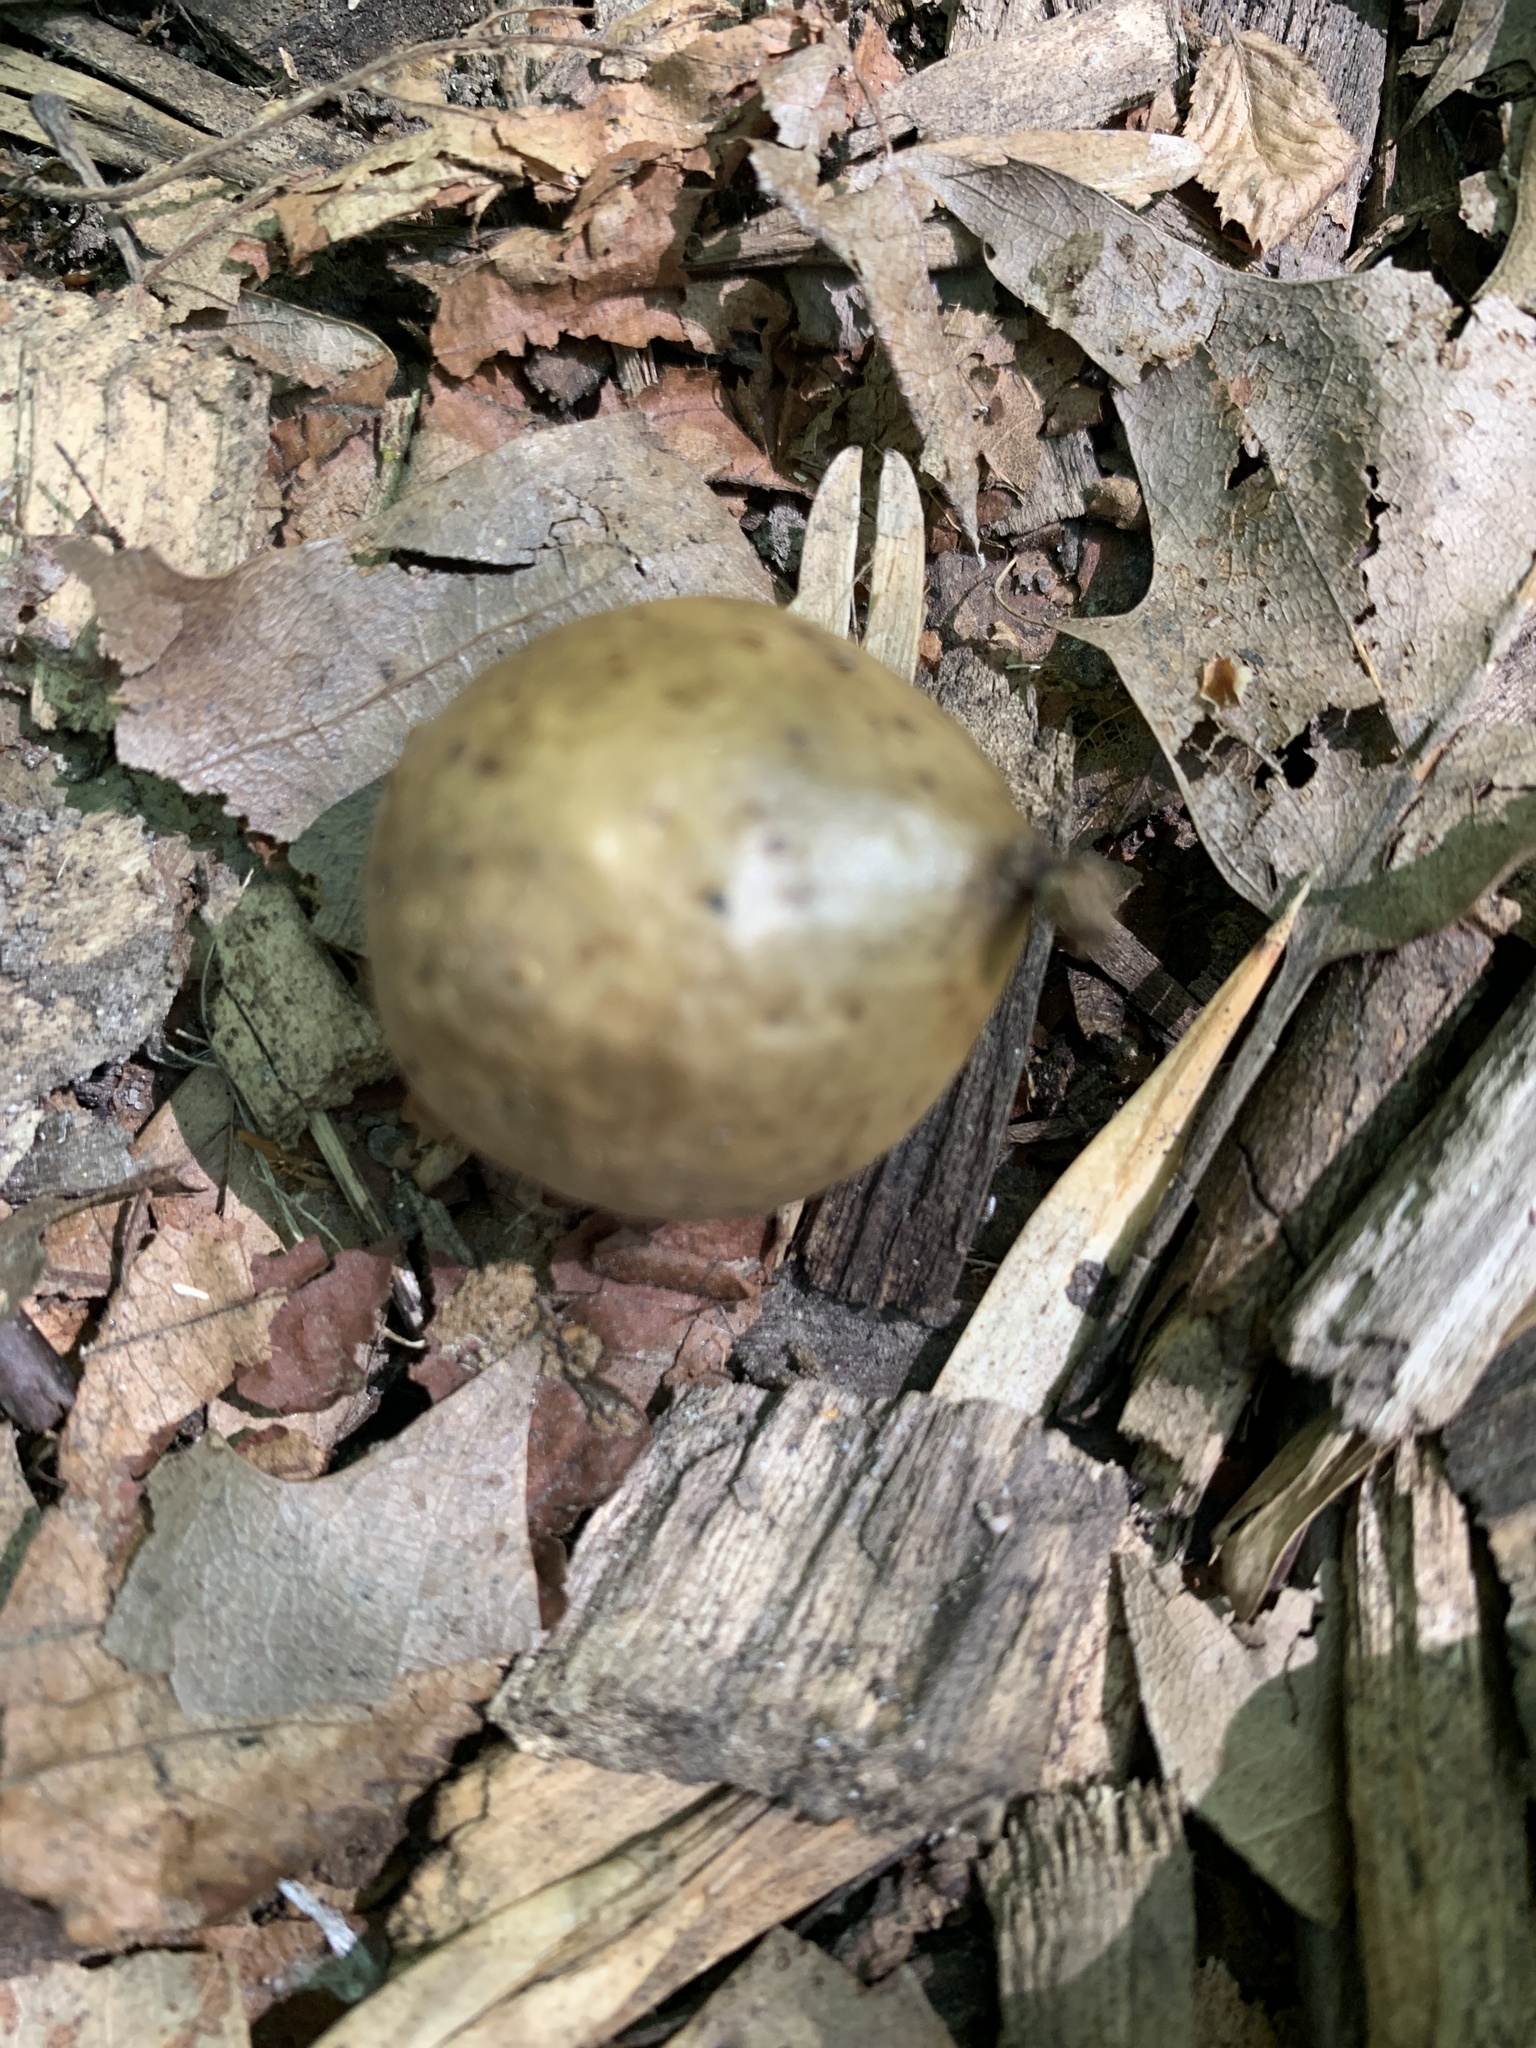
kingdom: Animalia
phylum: Arthropoda
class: Insecta
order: Hymenoptera
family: Cynipidae
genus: Amphibolips
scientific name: Amphibolips
